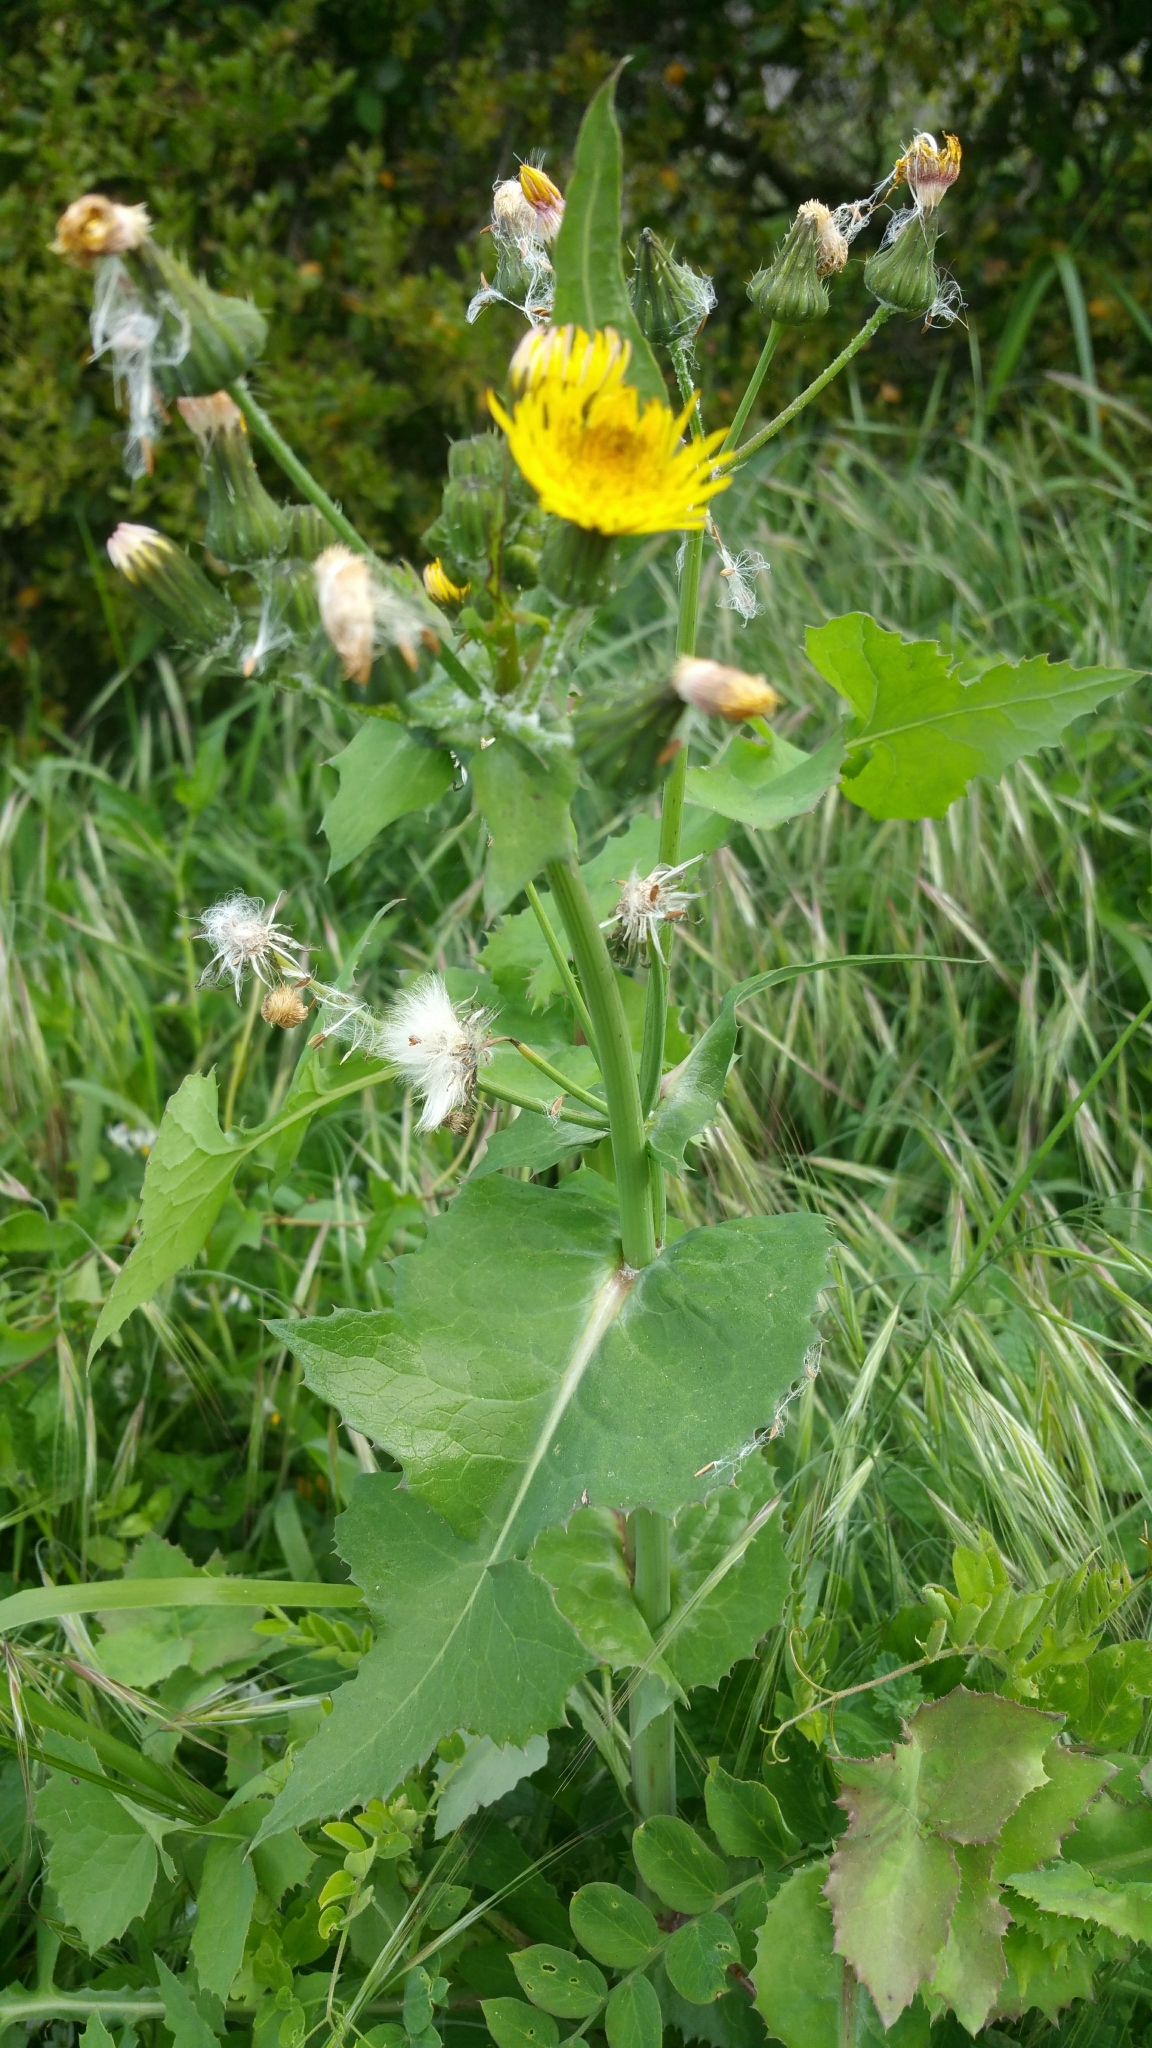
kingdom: Plantae
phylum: Tracheophyta
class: Magnoliopsida
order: Asterales
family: Asteraceae
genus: Sonchus
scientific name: Sonchus oleraceus
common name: Common sowthistle
